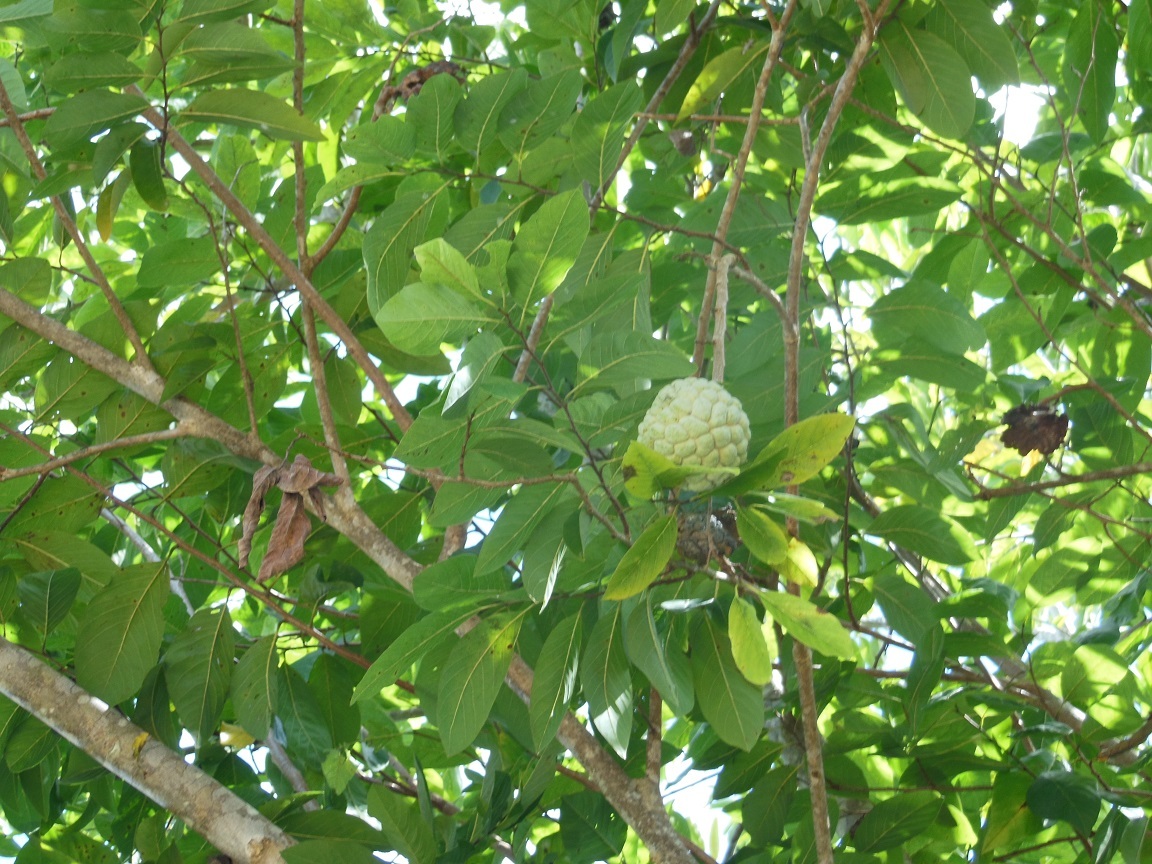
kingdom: Plantae
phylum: Tracheophyta
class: Magnoliopsida
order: Magnoliales
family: Annonaceae
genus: Annona
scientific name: Annona squamosa
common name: Custard-apple
